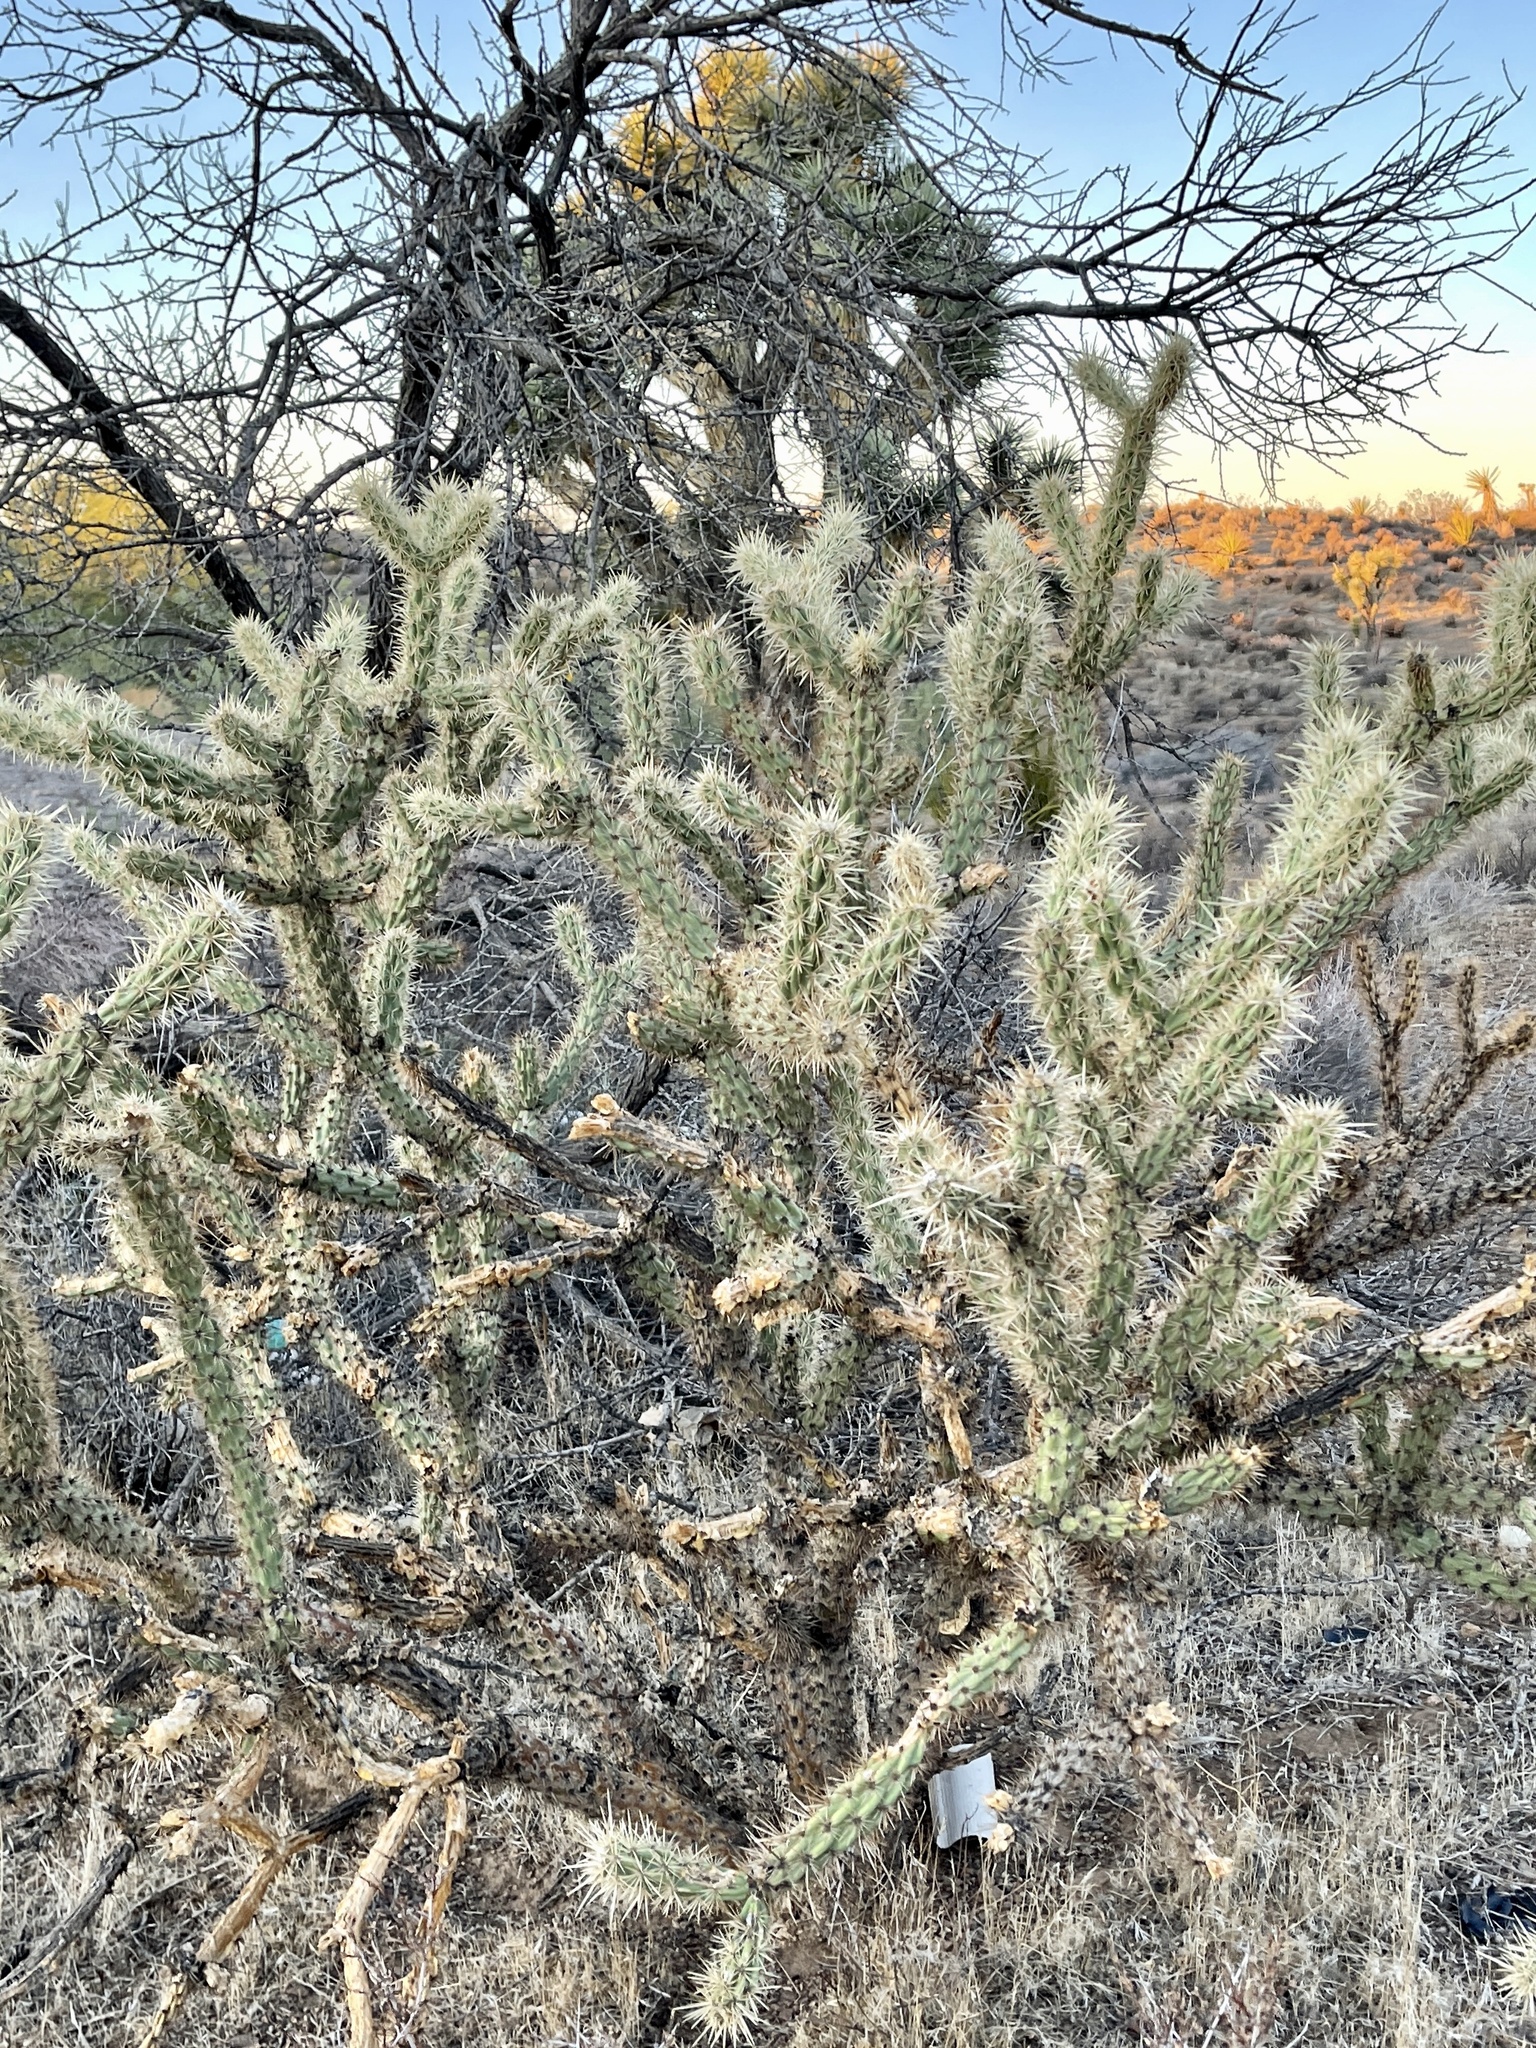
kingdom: Plantae
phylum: Tracheophyta
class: Magnoliopsida
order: Caryophyllales
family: Cactaceae
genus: Cylindropuntia
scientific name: Cylindropuntia acanthocarpa
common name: Buckhorn cholla
